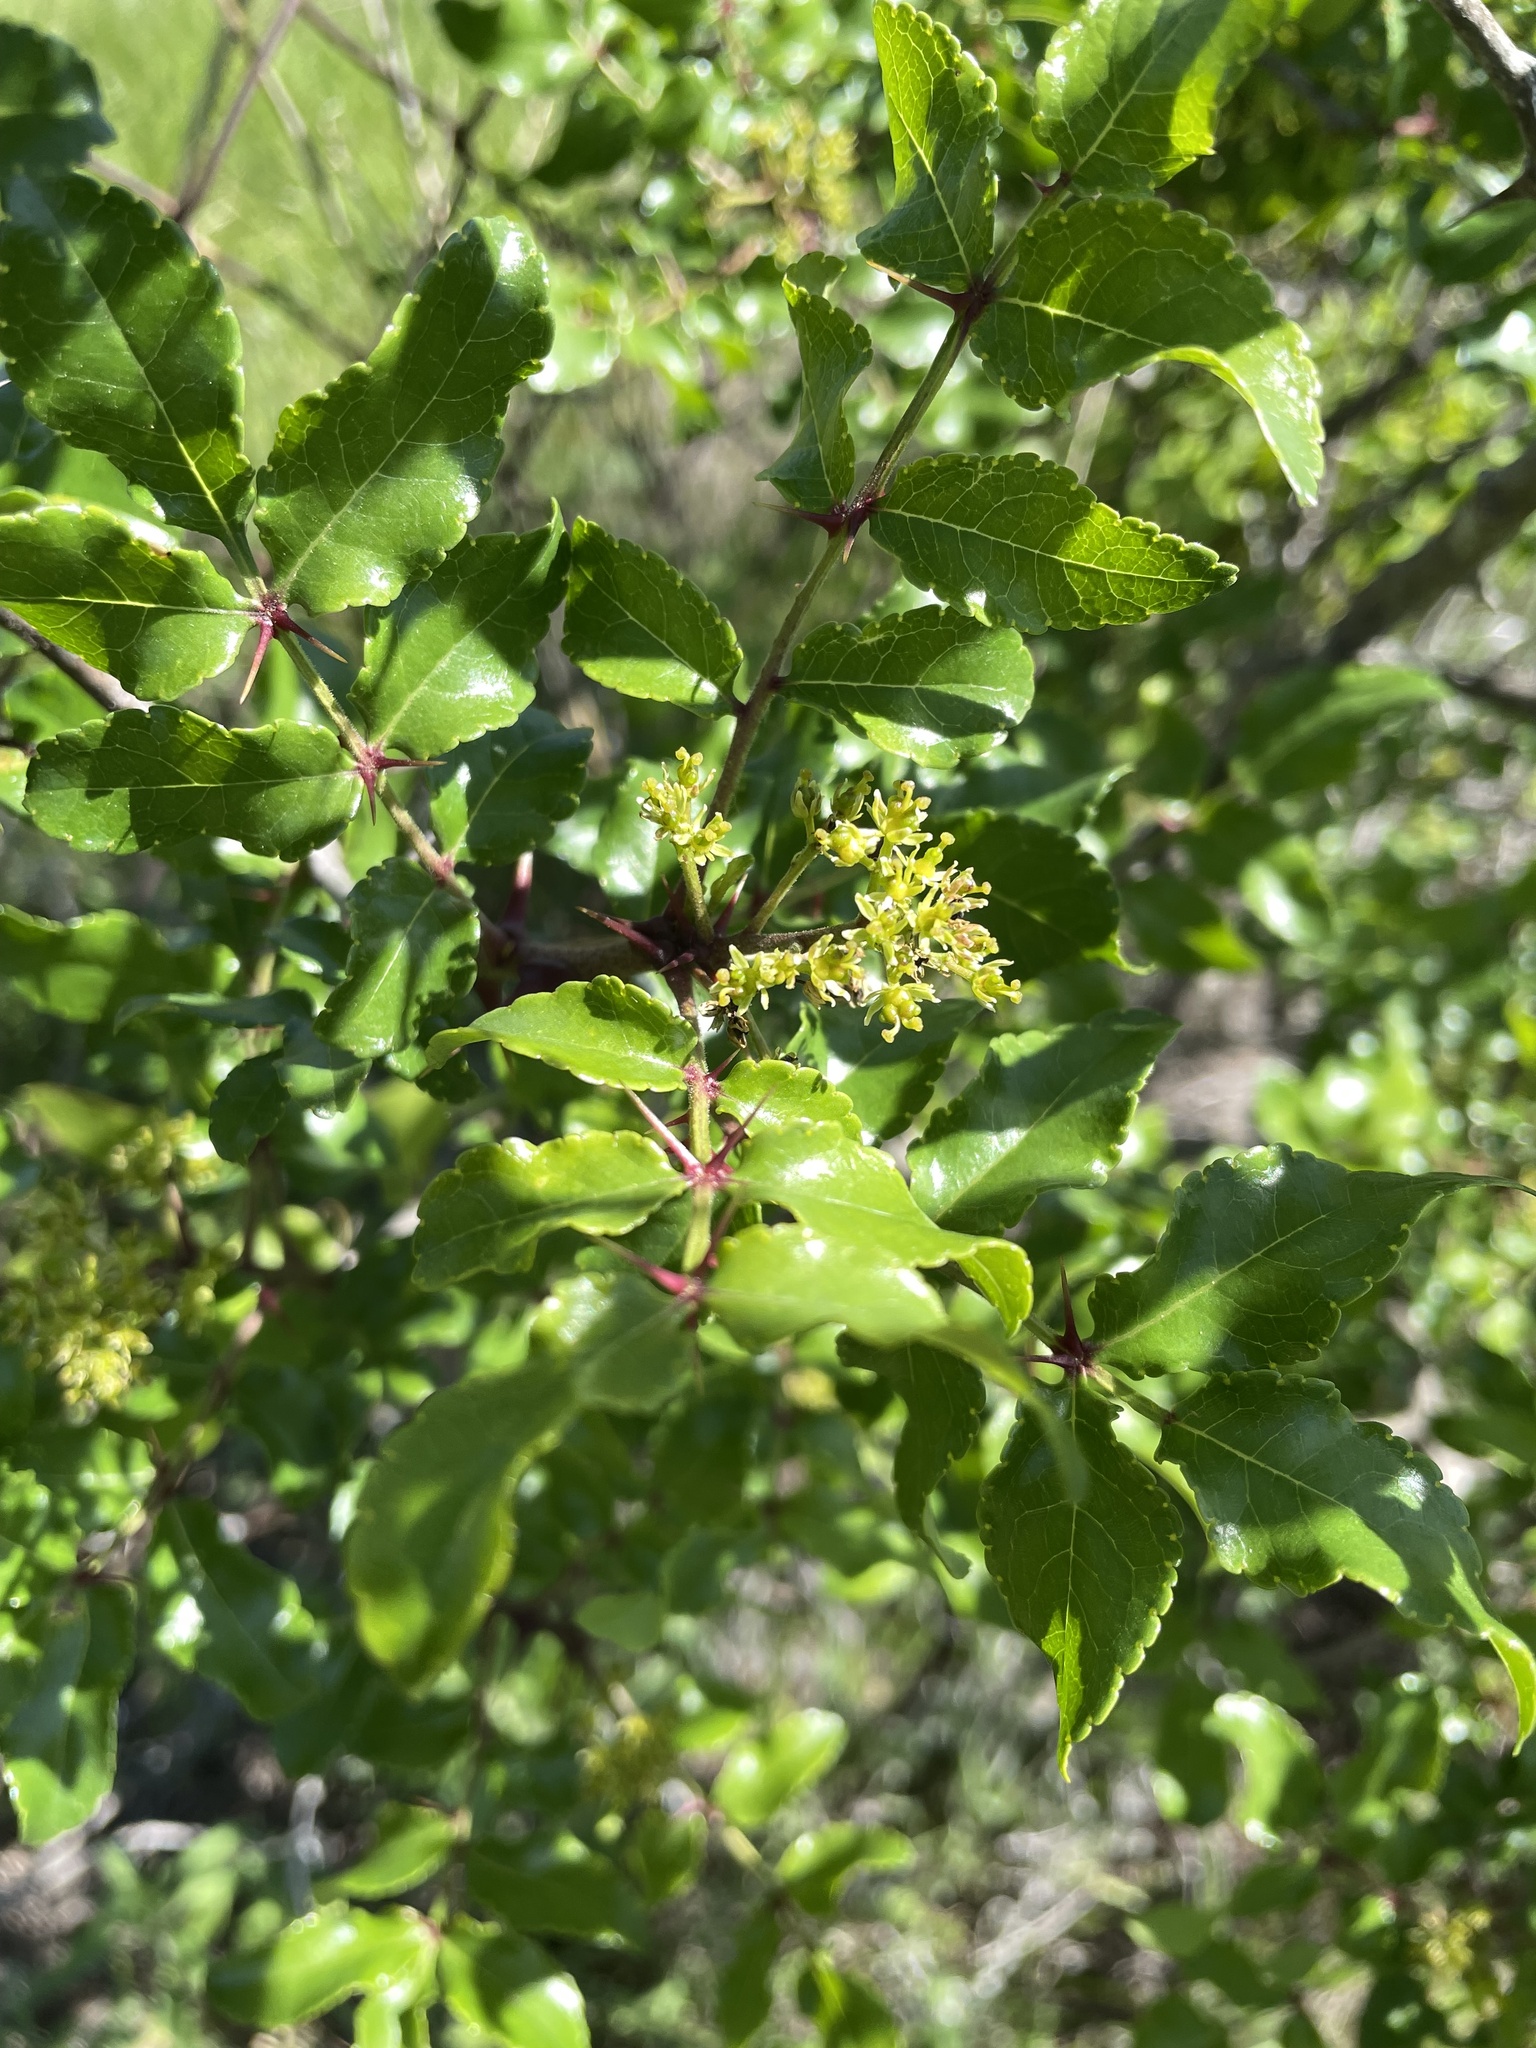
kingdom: Plantae
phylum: Tracheophyta
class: Magnoliopsida
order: Sapindales
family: Rutaceae
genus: Zanthoxylum
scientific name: Zanthoxylum clava-herculis
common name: Hercules'-club
